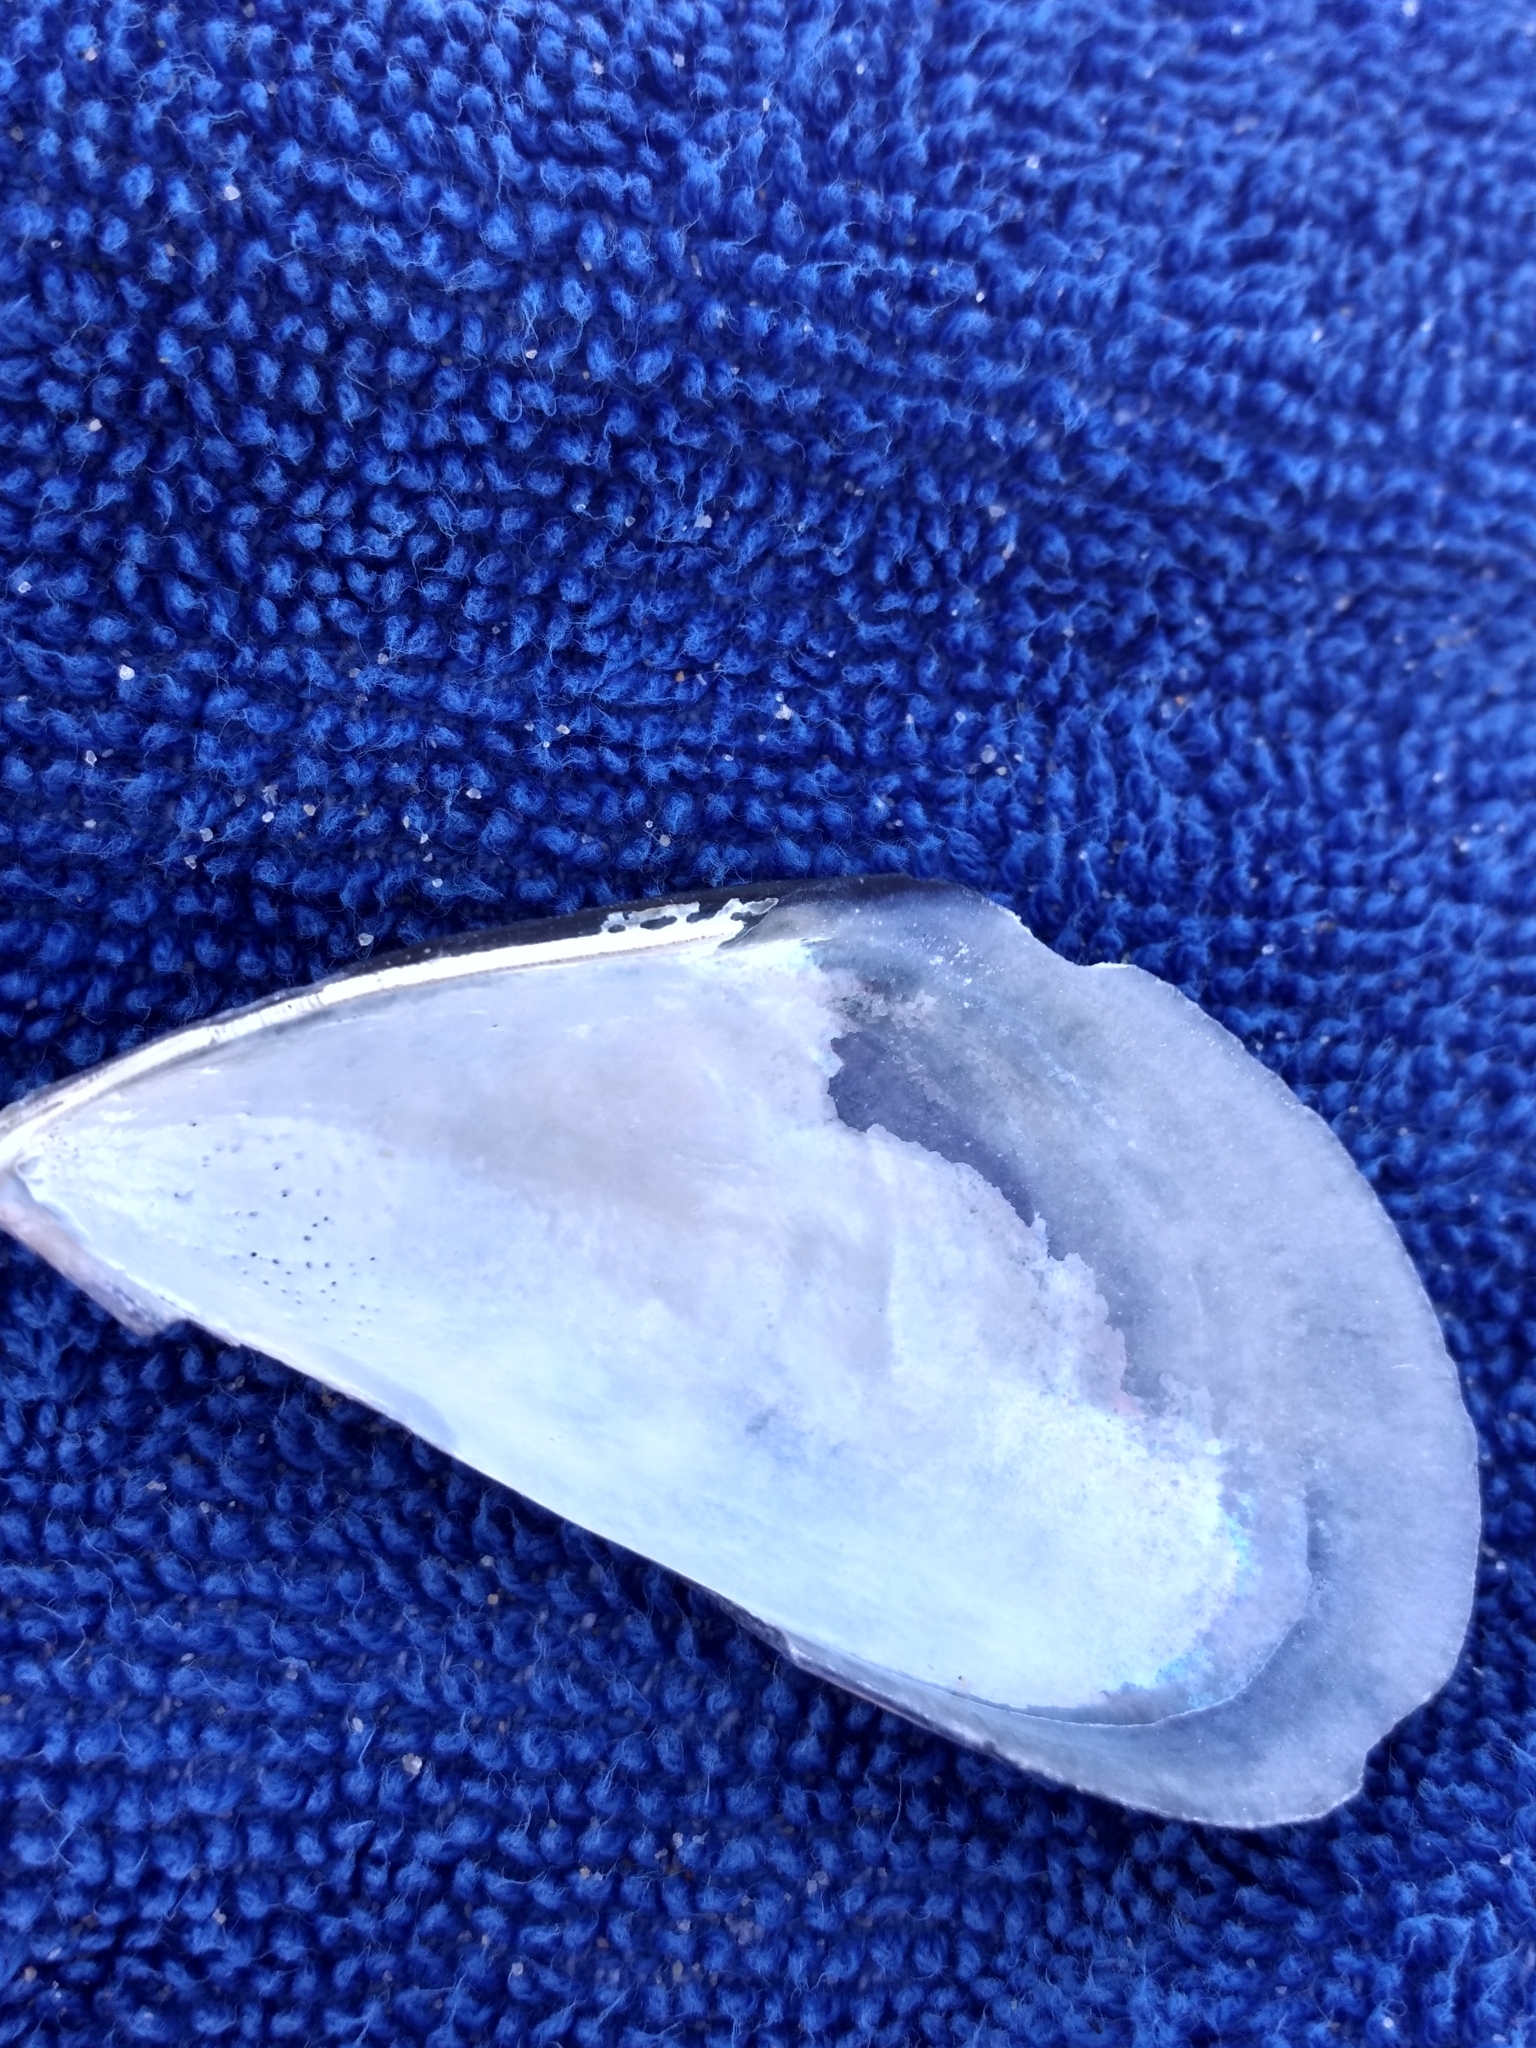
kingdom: Animalia
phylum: Mollusca
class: Bivalvia
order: Mytilida
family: Mytilidae
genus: Mytilus
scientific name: Mytilus galloprovincialis
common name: Mediterranean mussel
